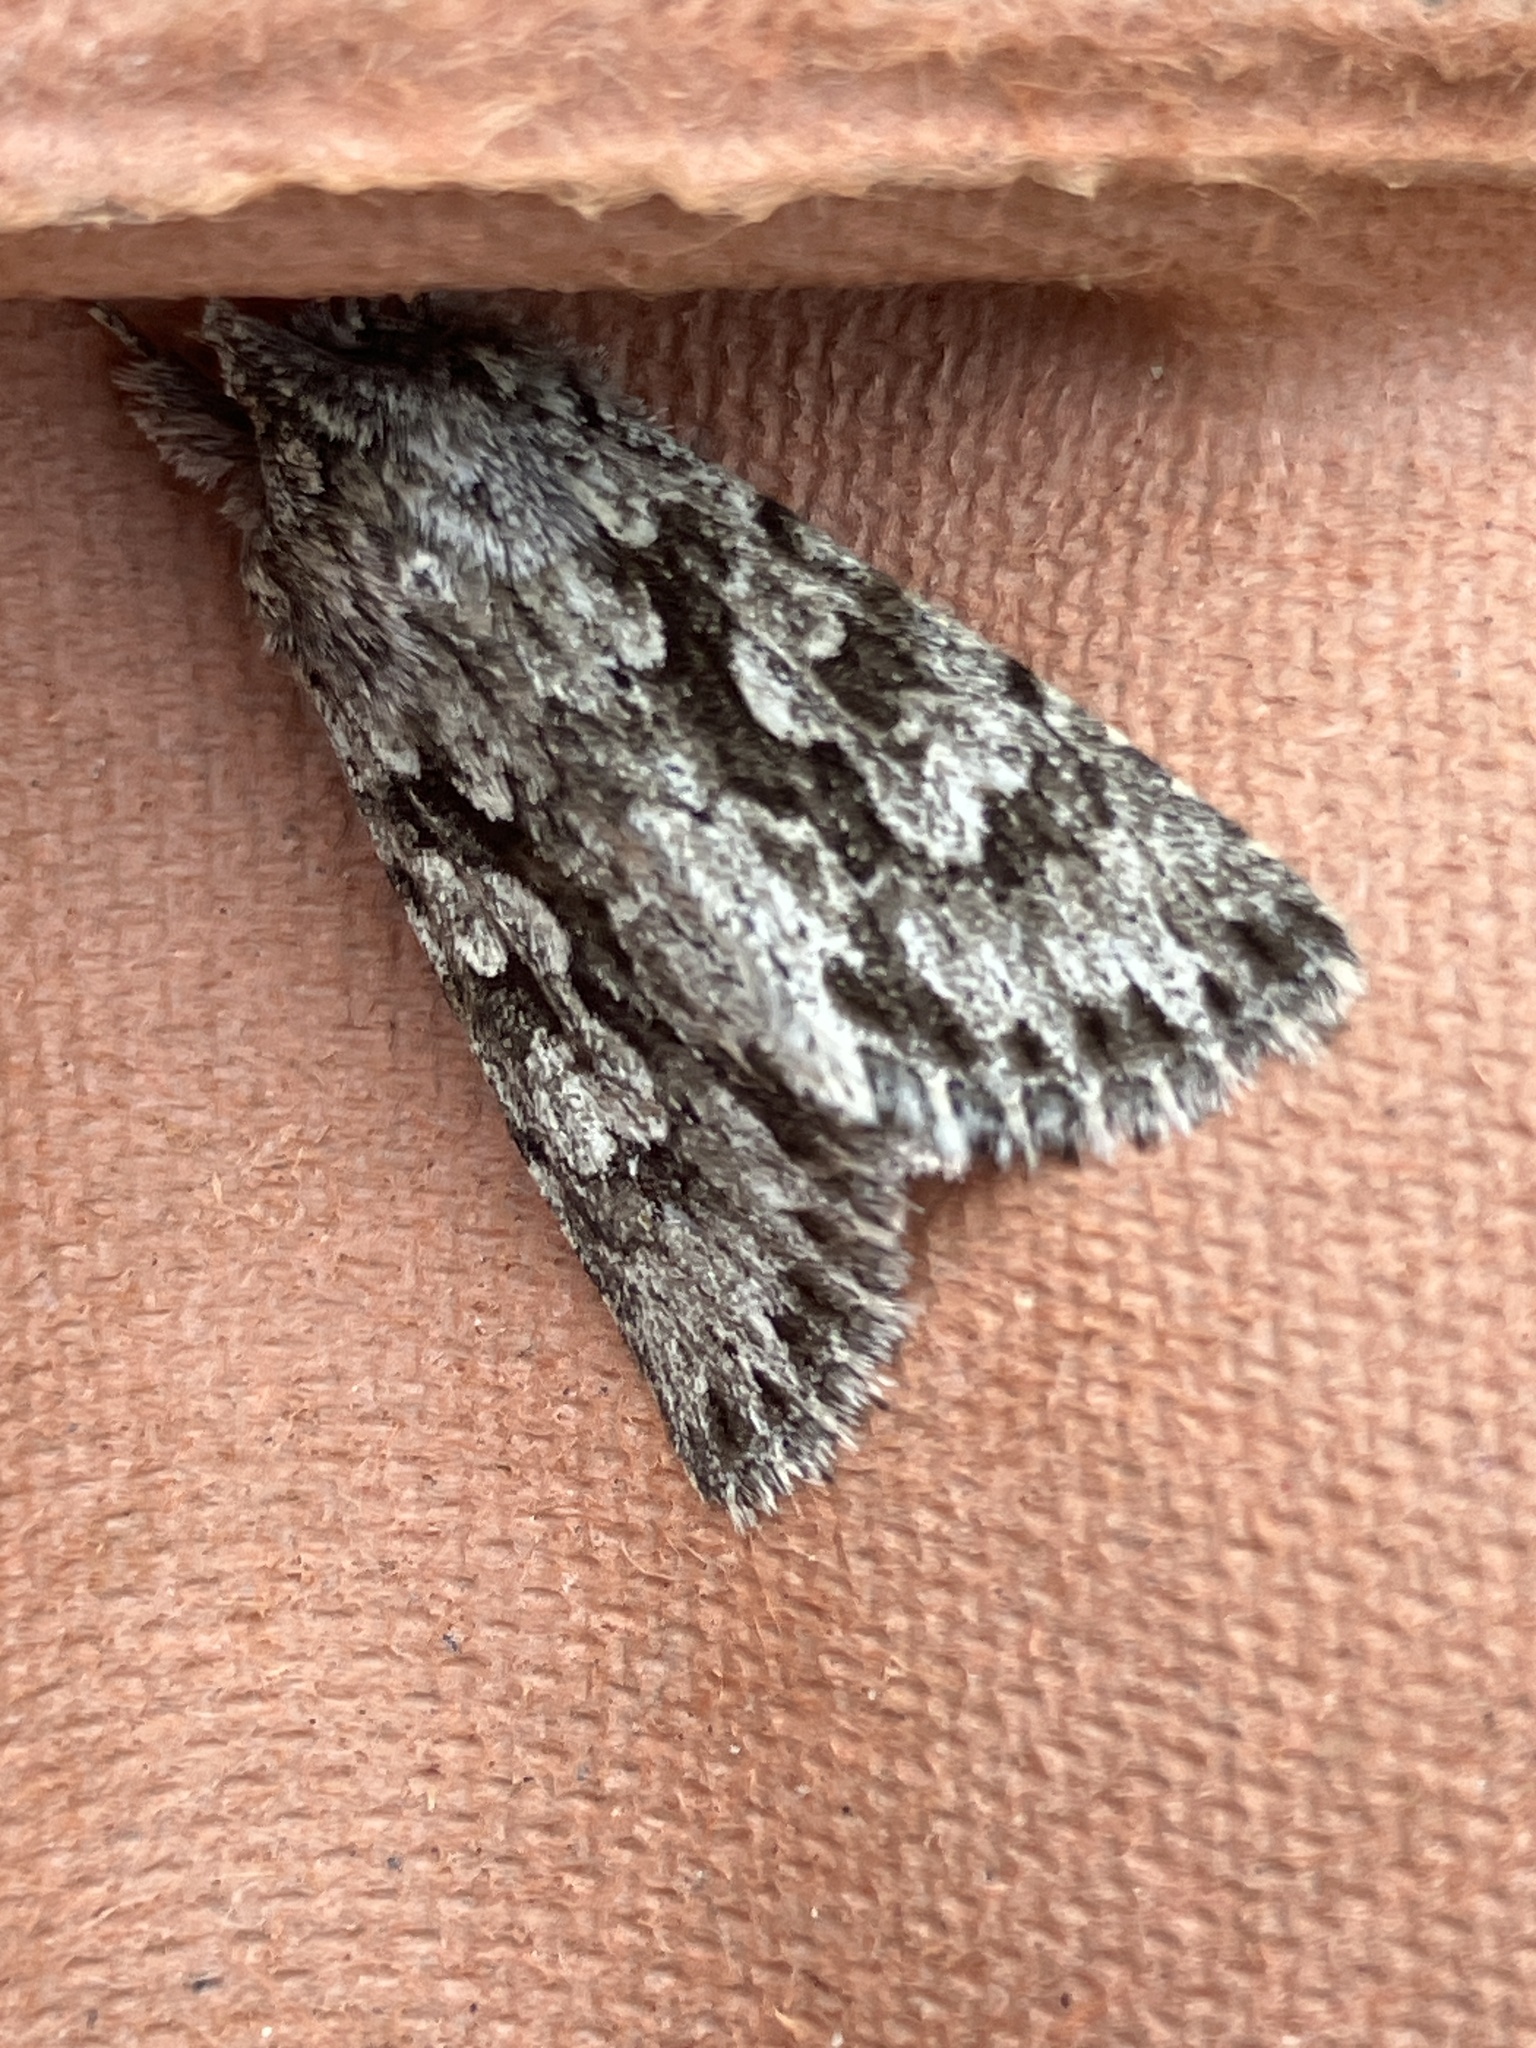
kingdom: Animalia
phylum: Arthropoda
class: Insecta
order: Lepidoptera
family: Noctuidae
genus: Xylocampa
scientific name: Xylocampa areola
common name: Early grey
